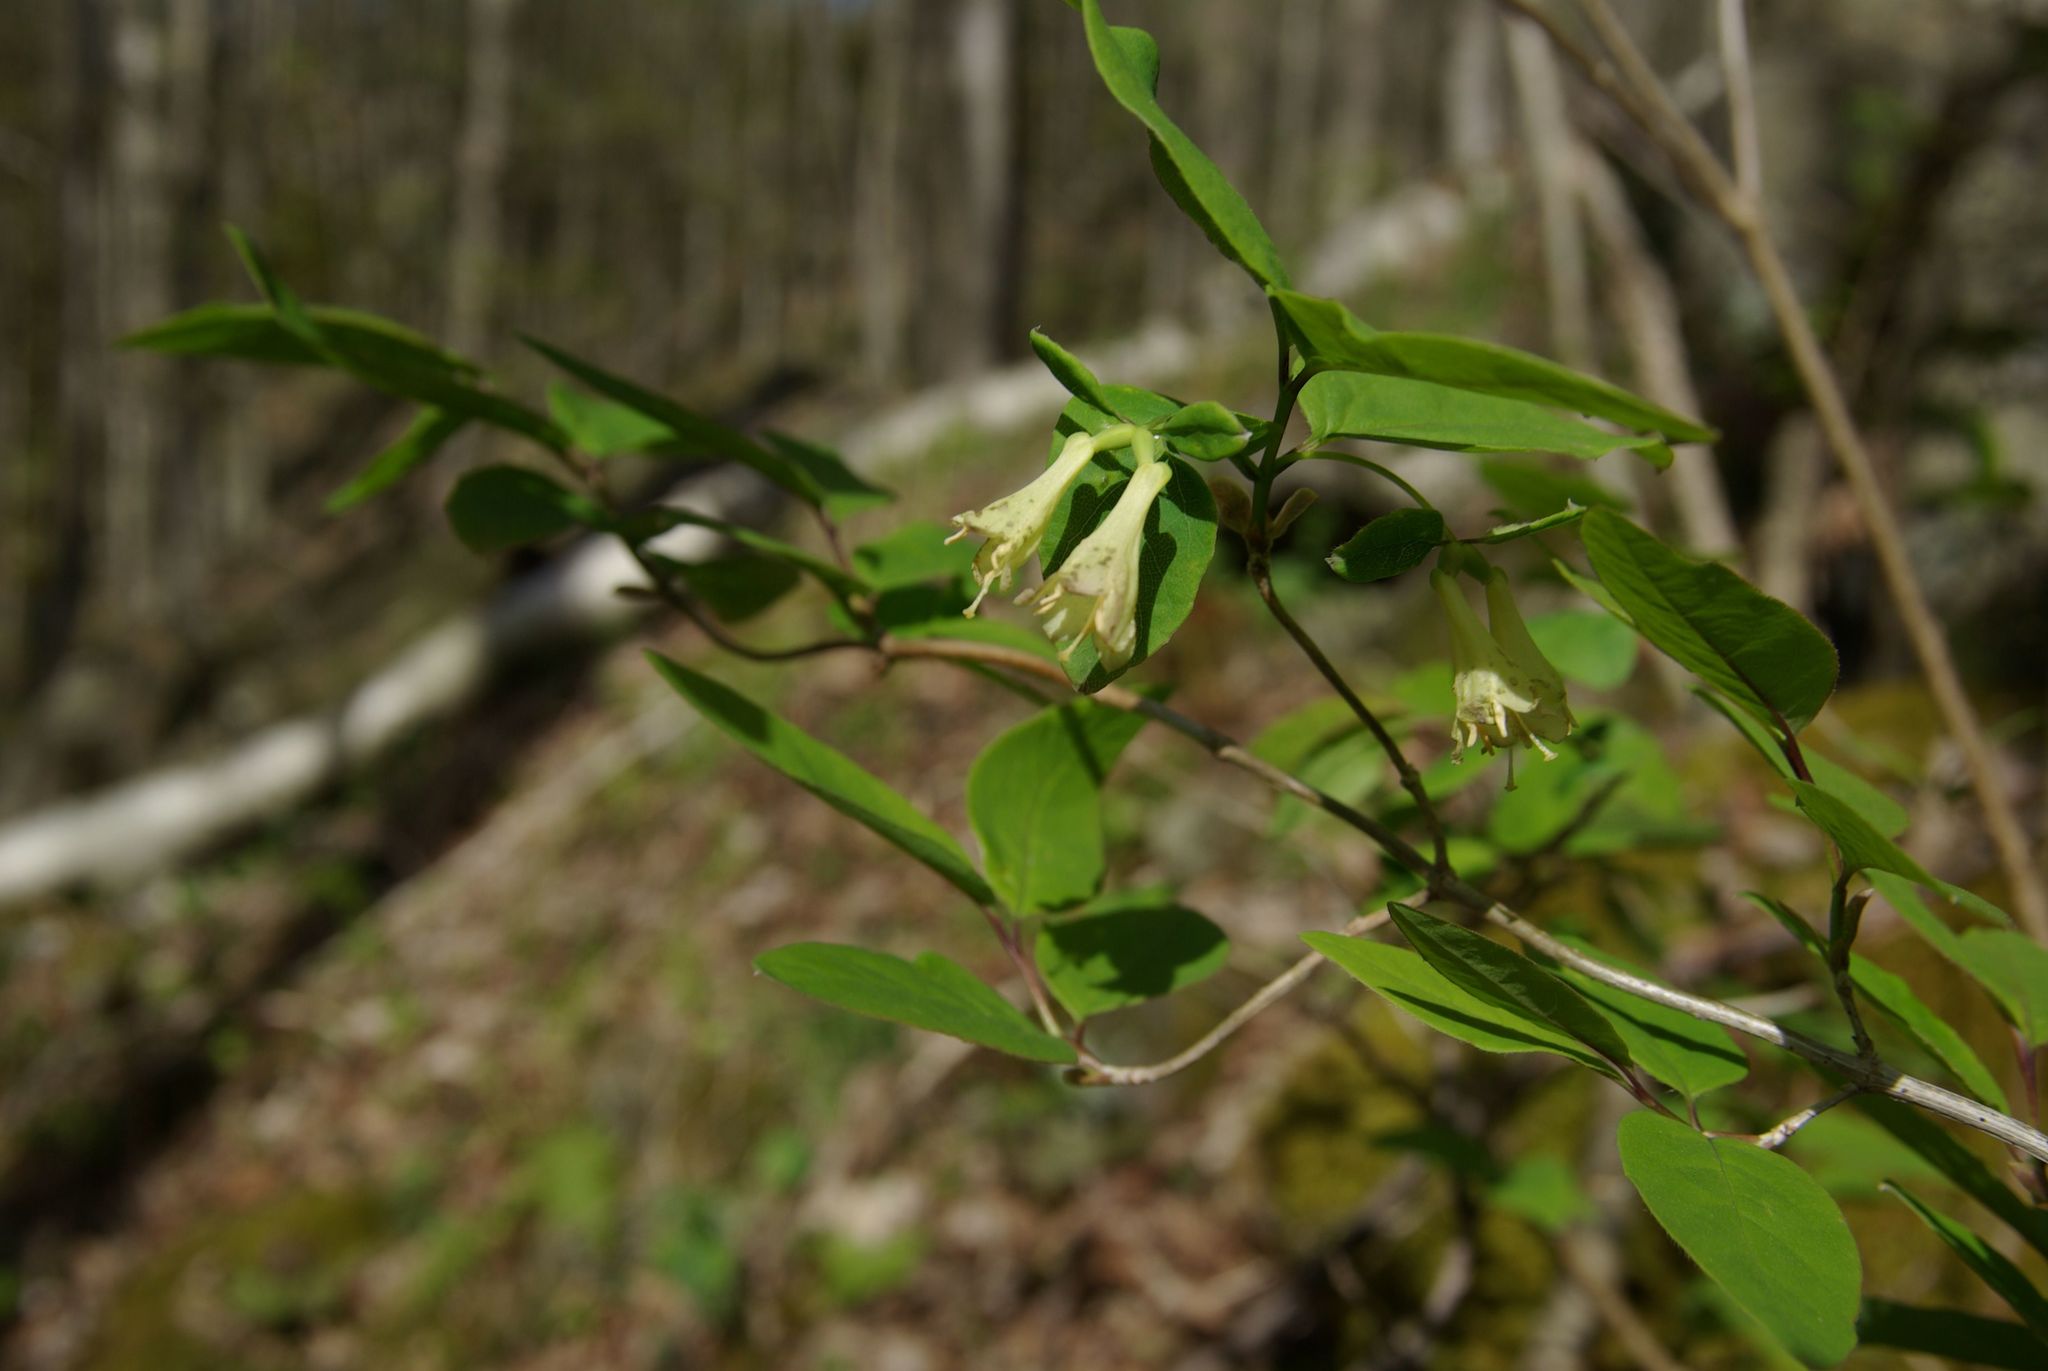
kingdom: Plantae
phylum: Tracheophyta
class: Magnoliopsida
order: Dipsacales
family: Caprifoliaceae
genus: Lonicera
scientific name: Lonicera canadensis
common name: American fly-honeysuckle
